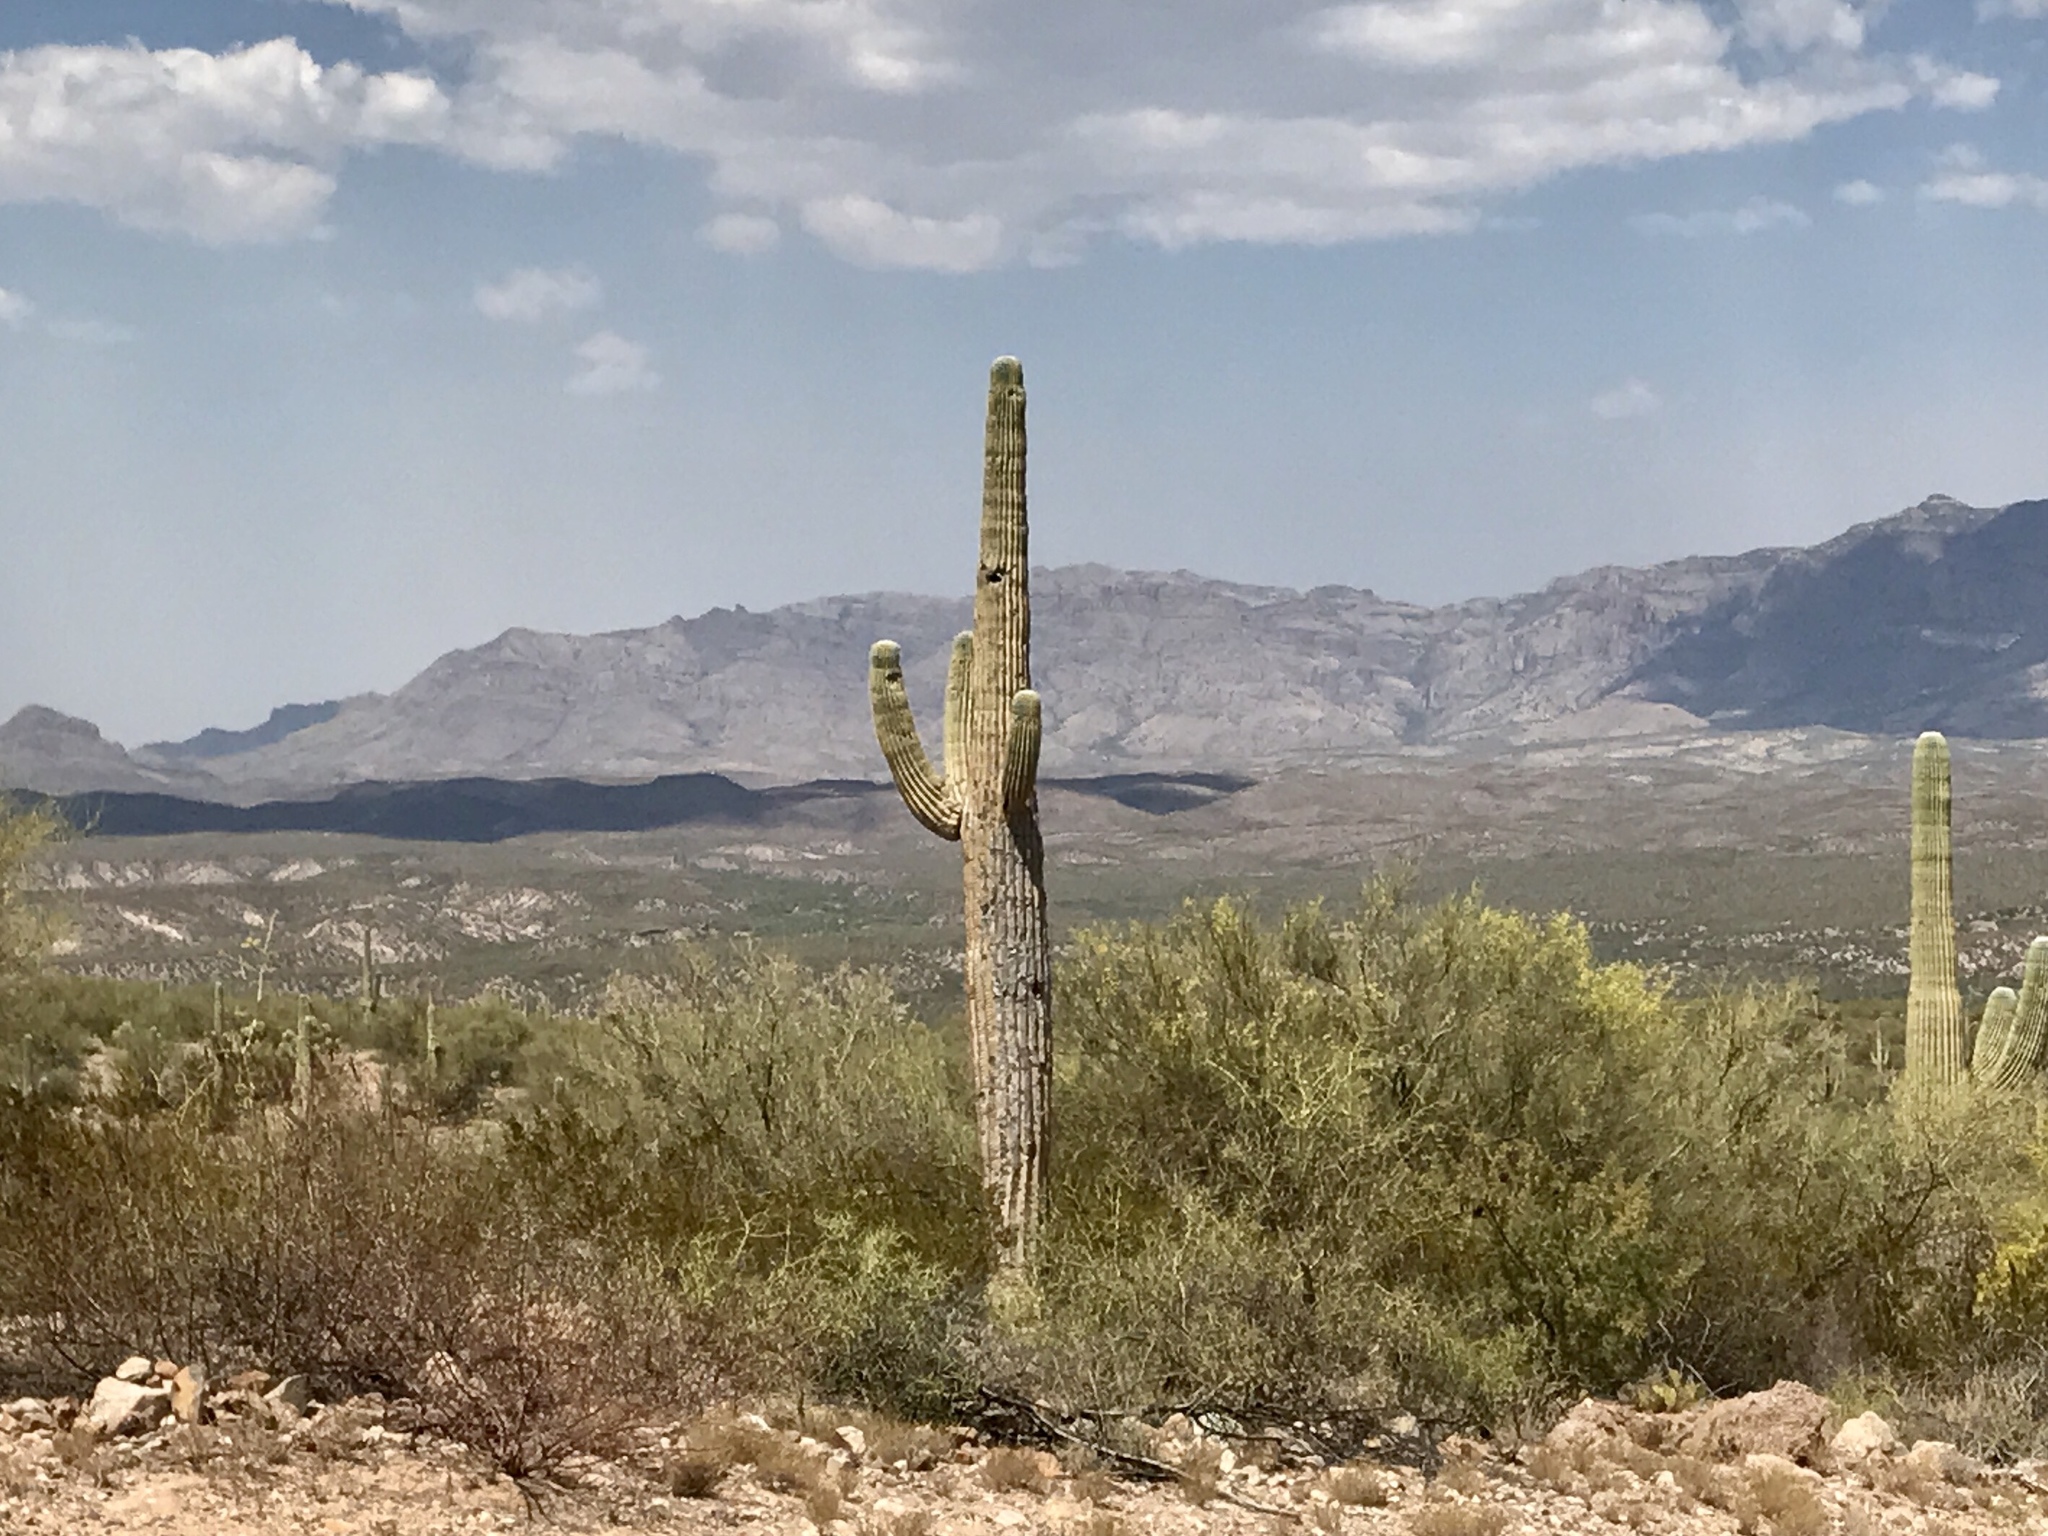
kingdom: Plantae
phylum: Tracheophyta
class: Magnoliopsida
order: Caryophyllales
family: Cactaceae
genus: Carnegiea
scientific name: Carnegiea gigantea
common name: Saguaro
